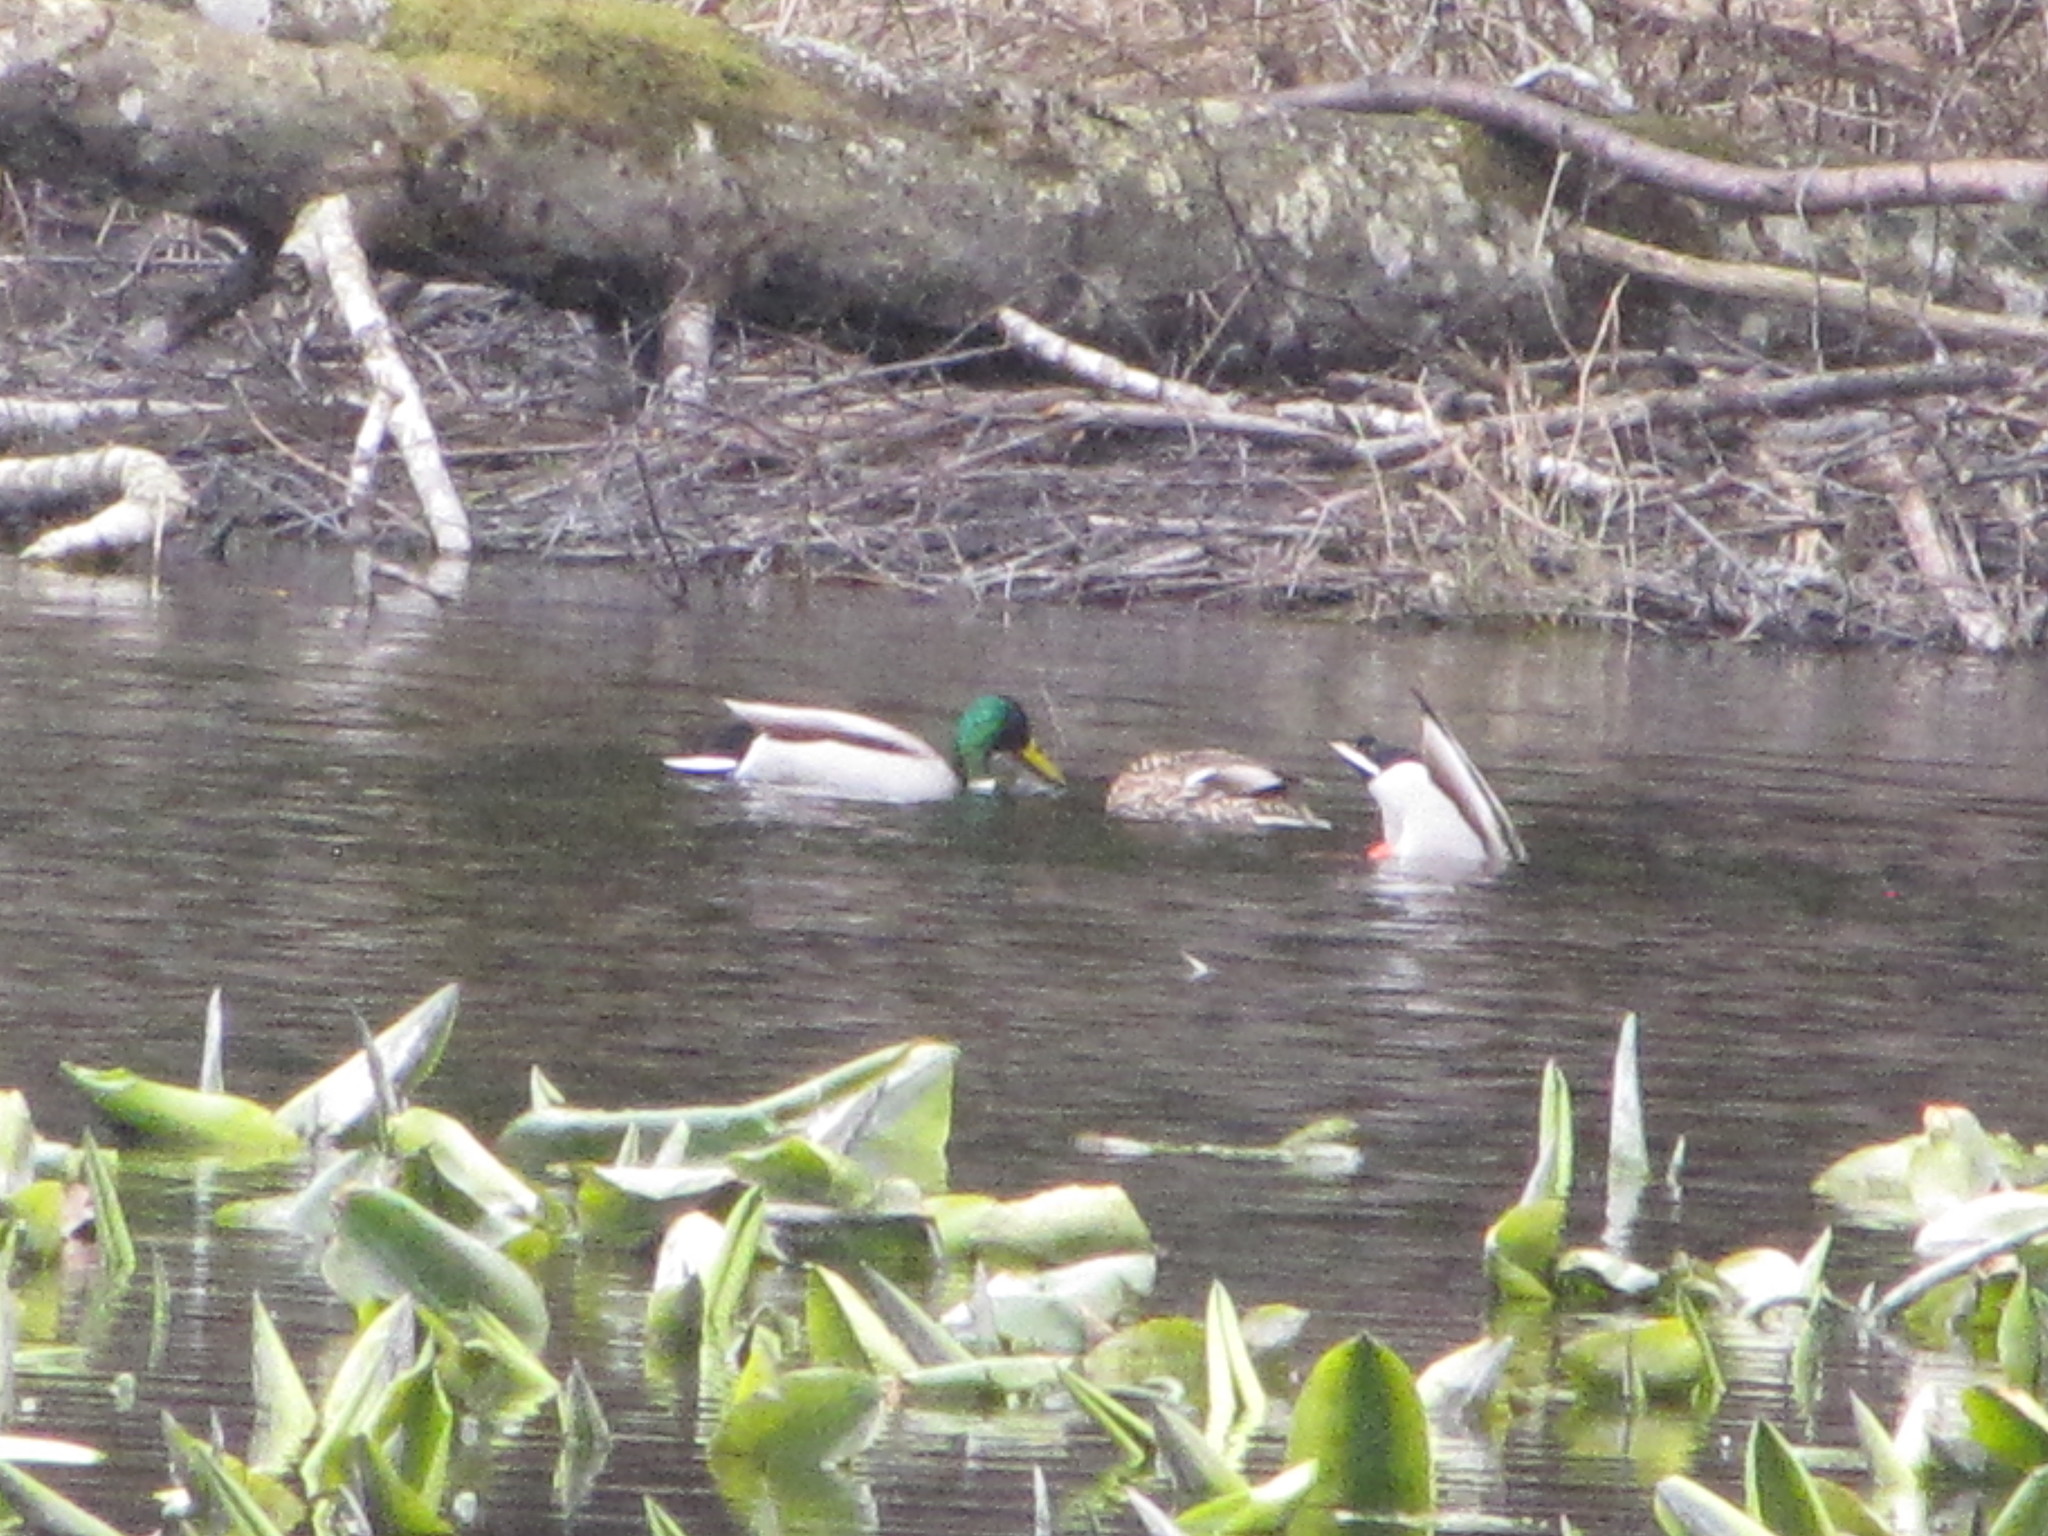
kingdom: Animalia
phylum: Chordata
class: Aves
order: Anseriformes
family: Anatidae
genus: Anas
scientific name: Anas platyrhynchos
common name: Mallard
